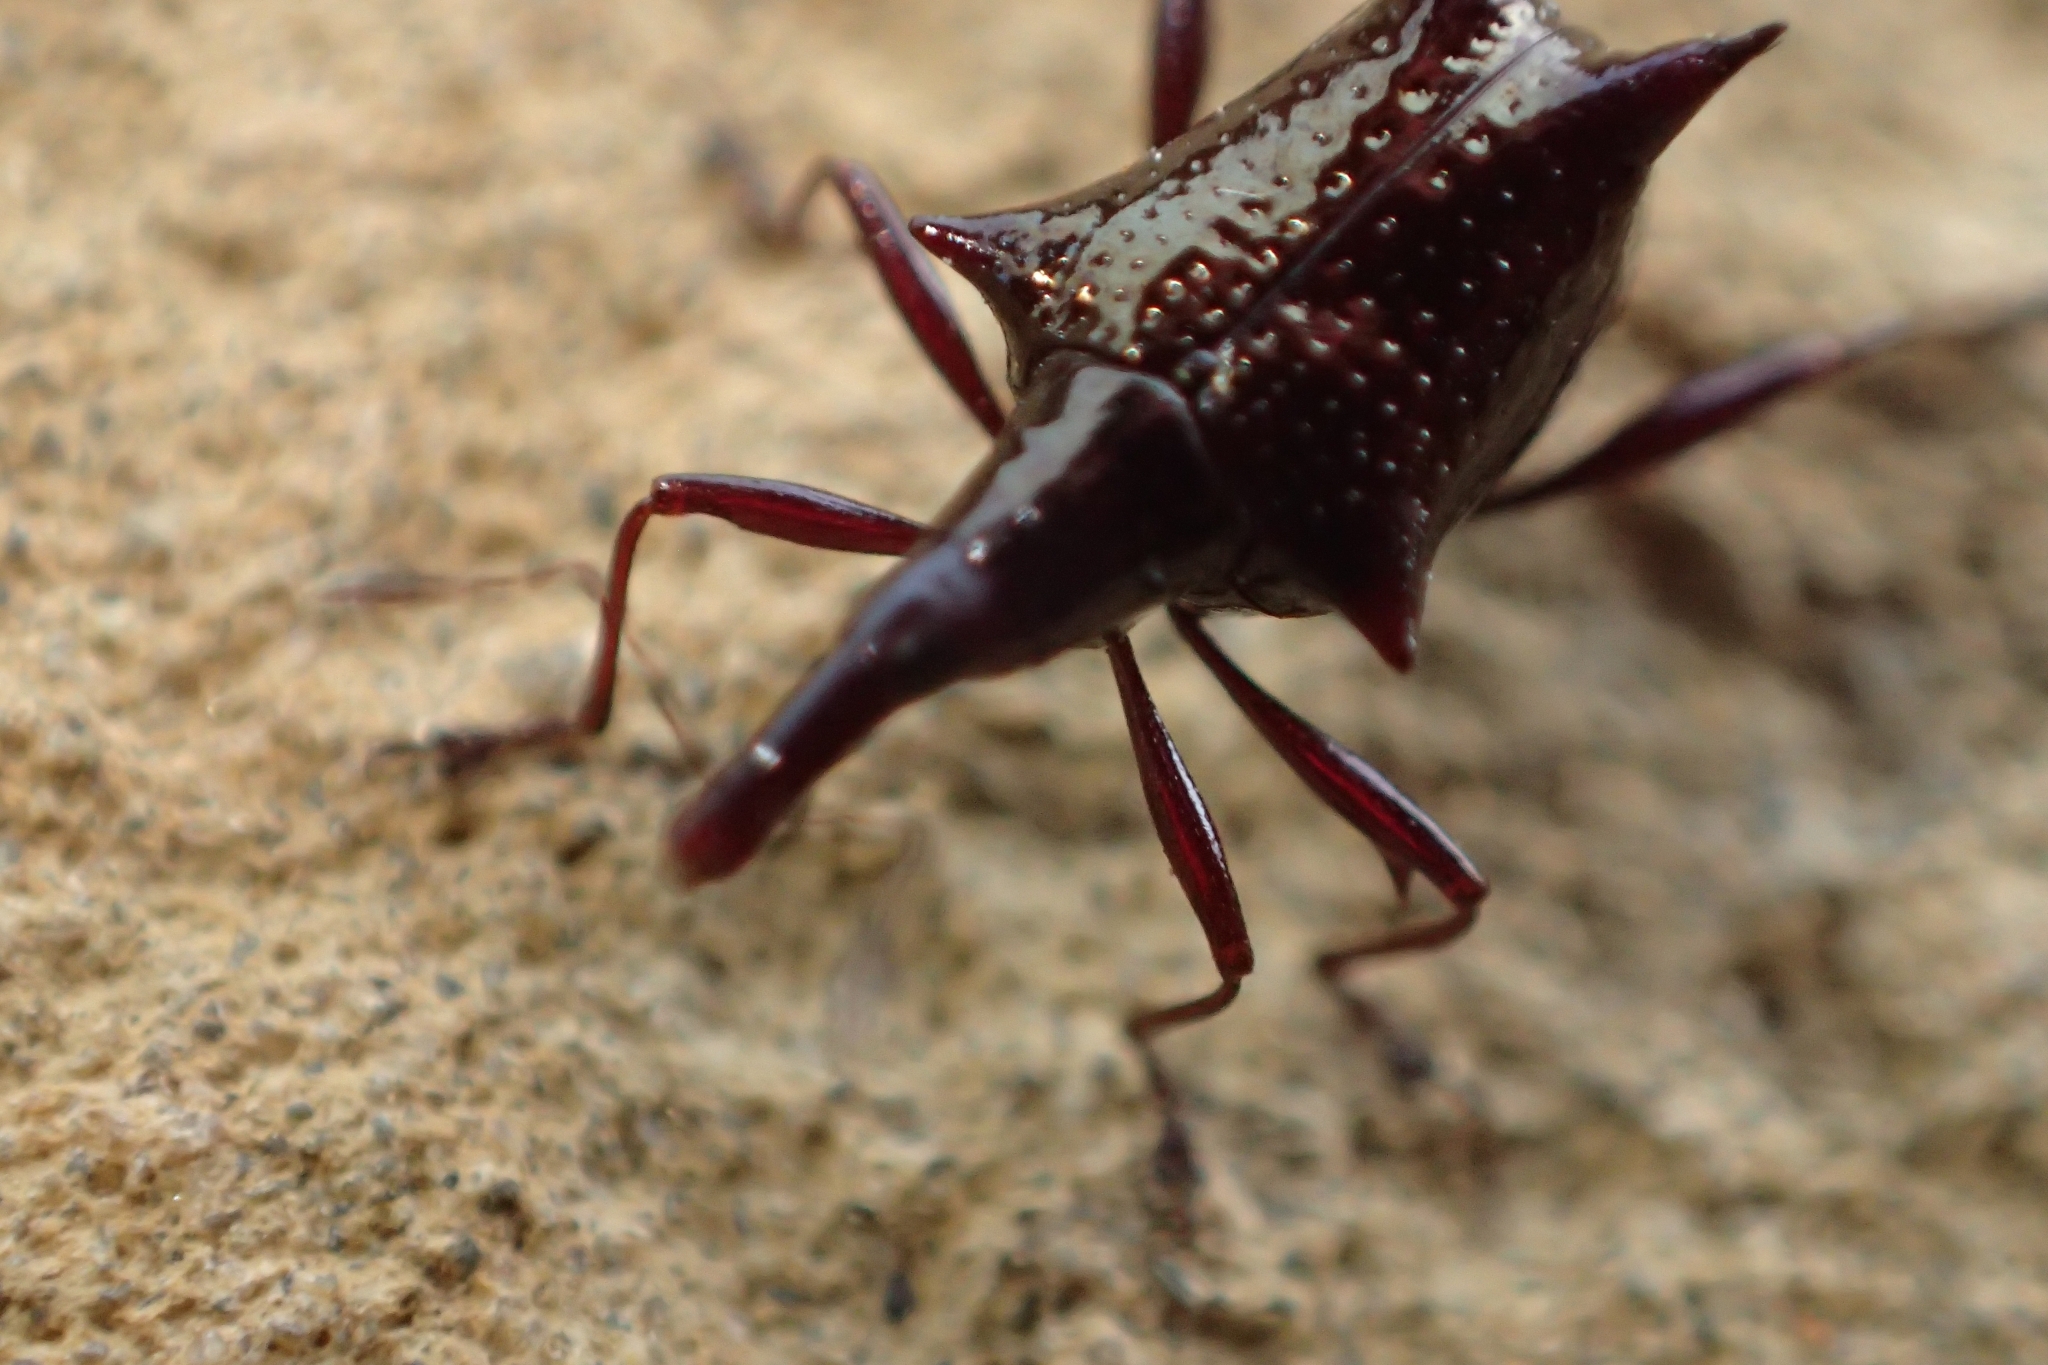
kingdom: Animalia
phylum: Arthropoda
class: Insecta
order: Coleoptera
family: Curculionidae
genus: Scolopterus
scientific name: Scolopterus aequus
